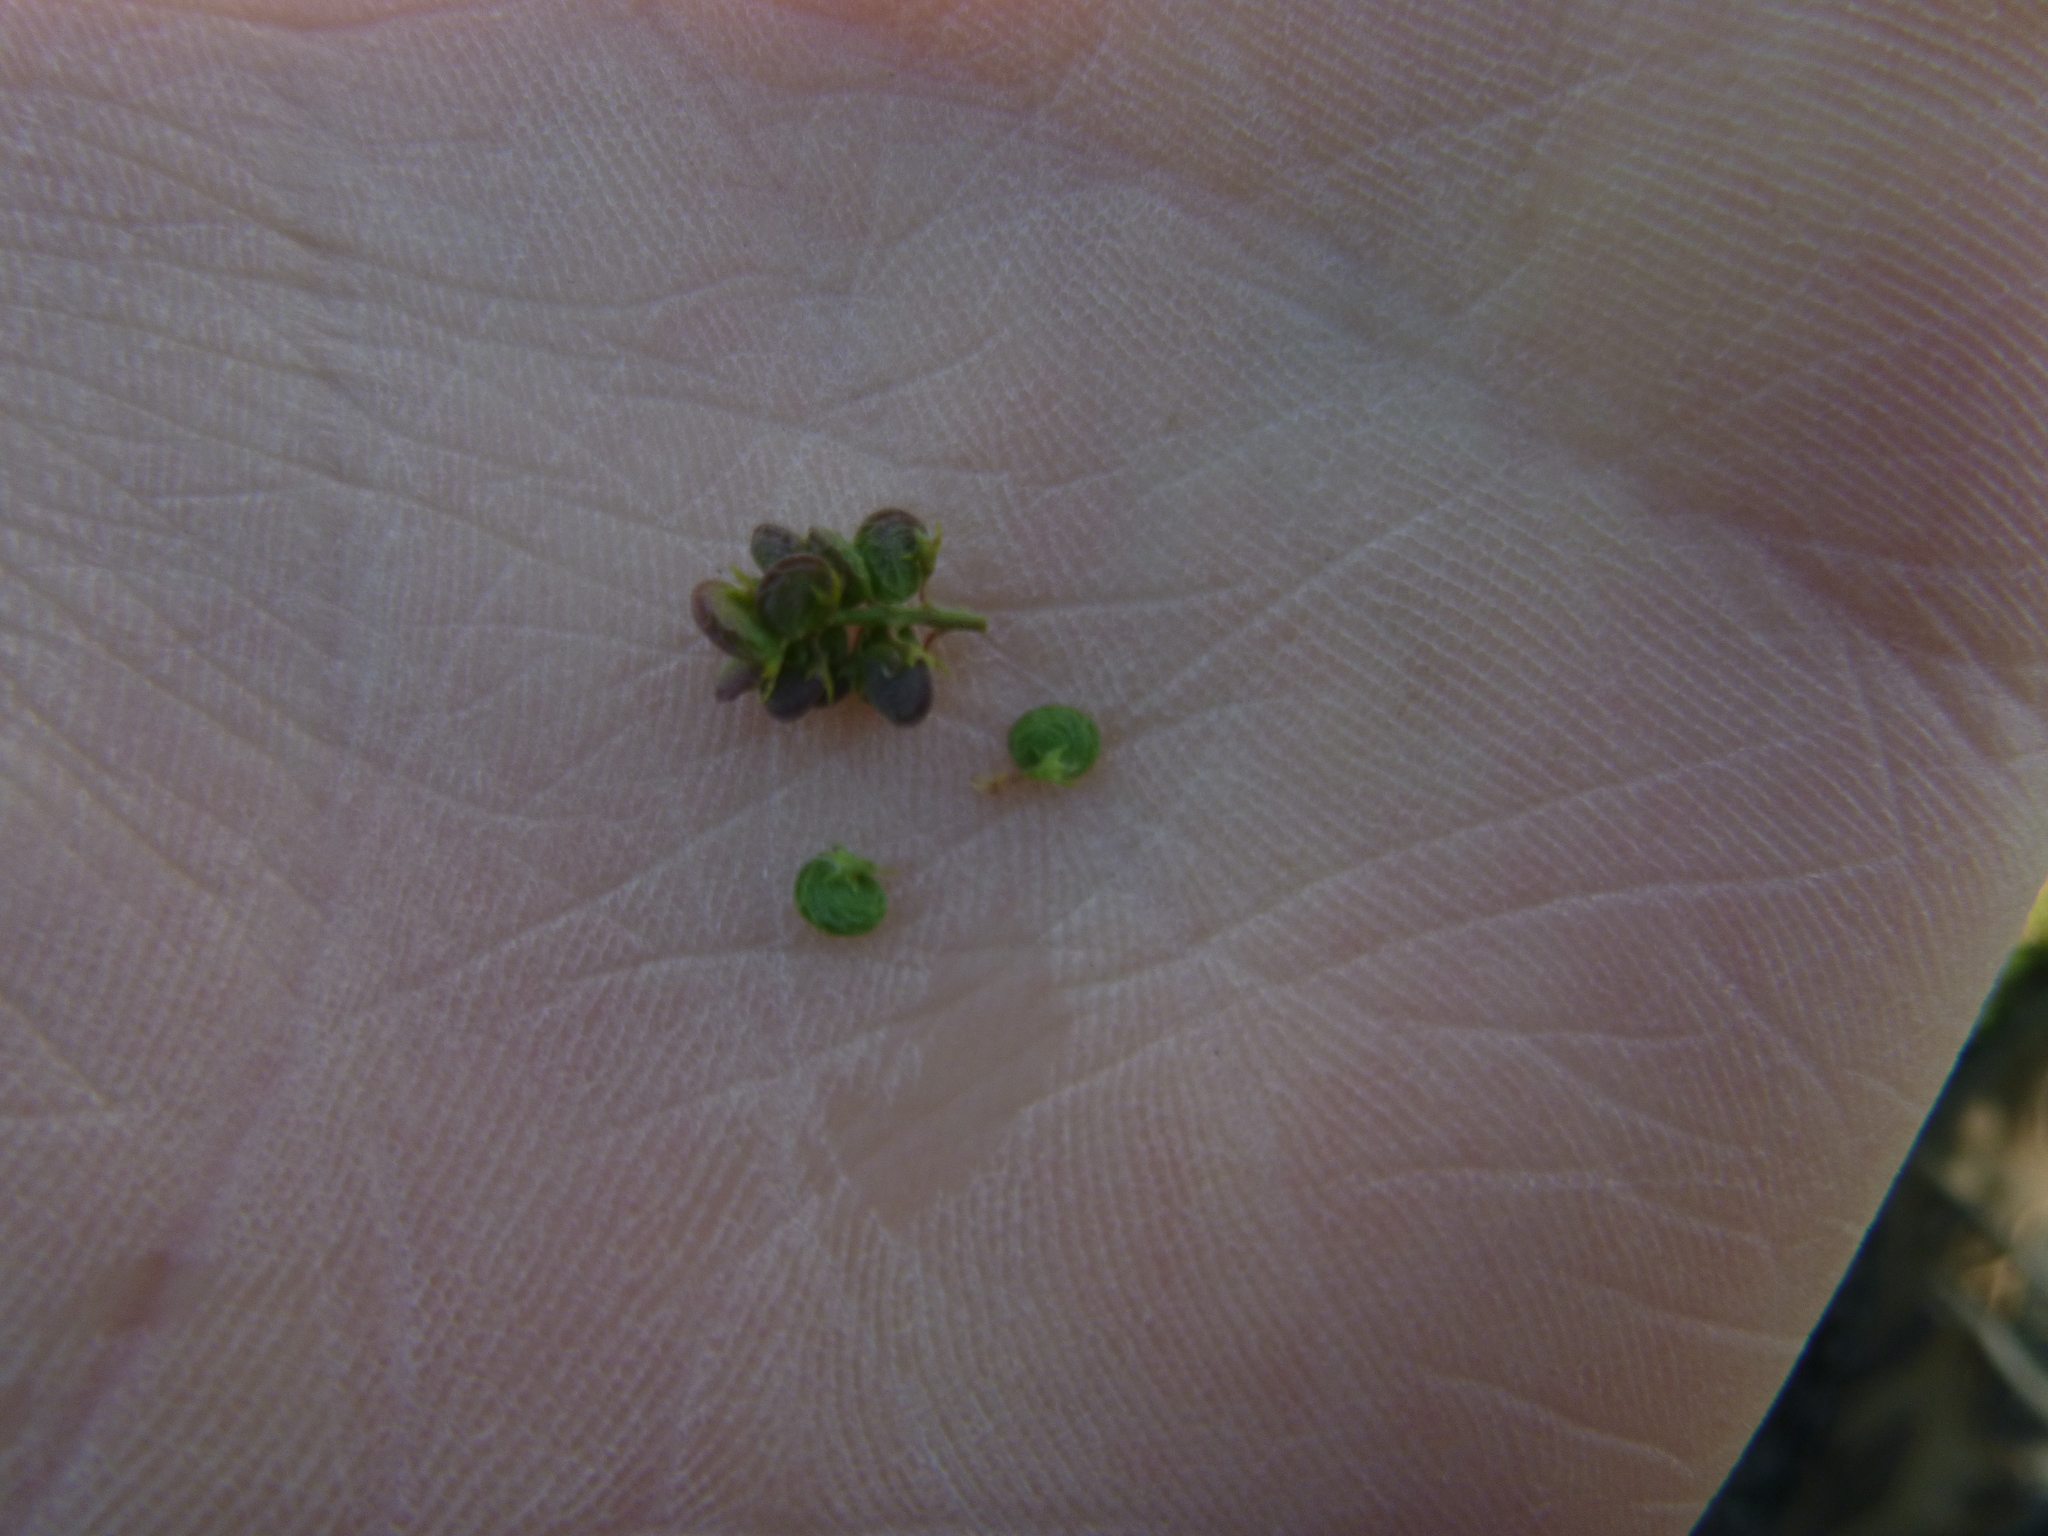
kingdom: Plantae
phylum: Tracheophyta
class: Magnoliopsida
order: Fabales
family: Fabaceae
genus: Medicago
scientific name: Medicago lupulina
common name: Black medick
